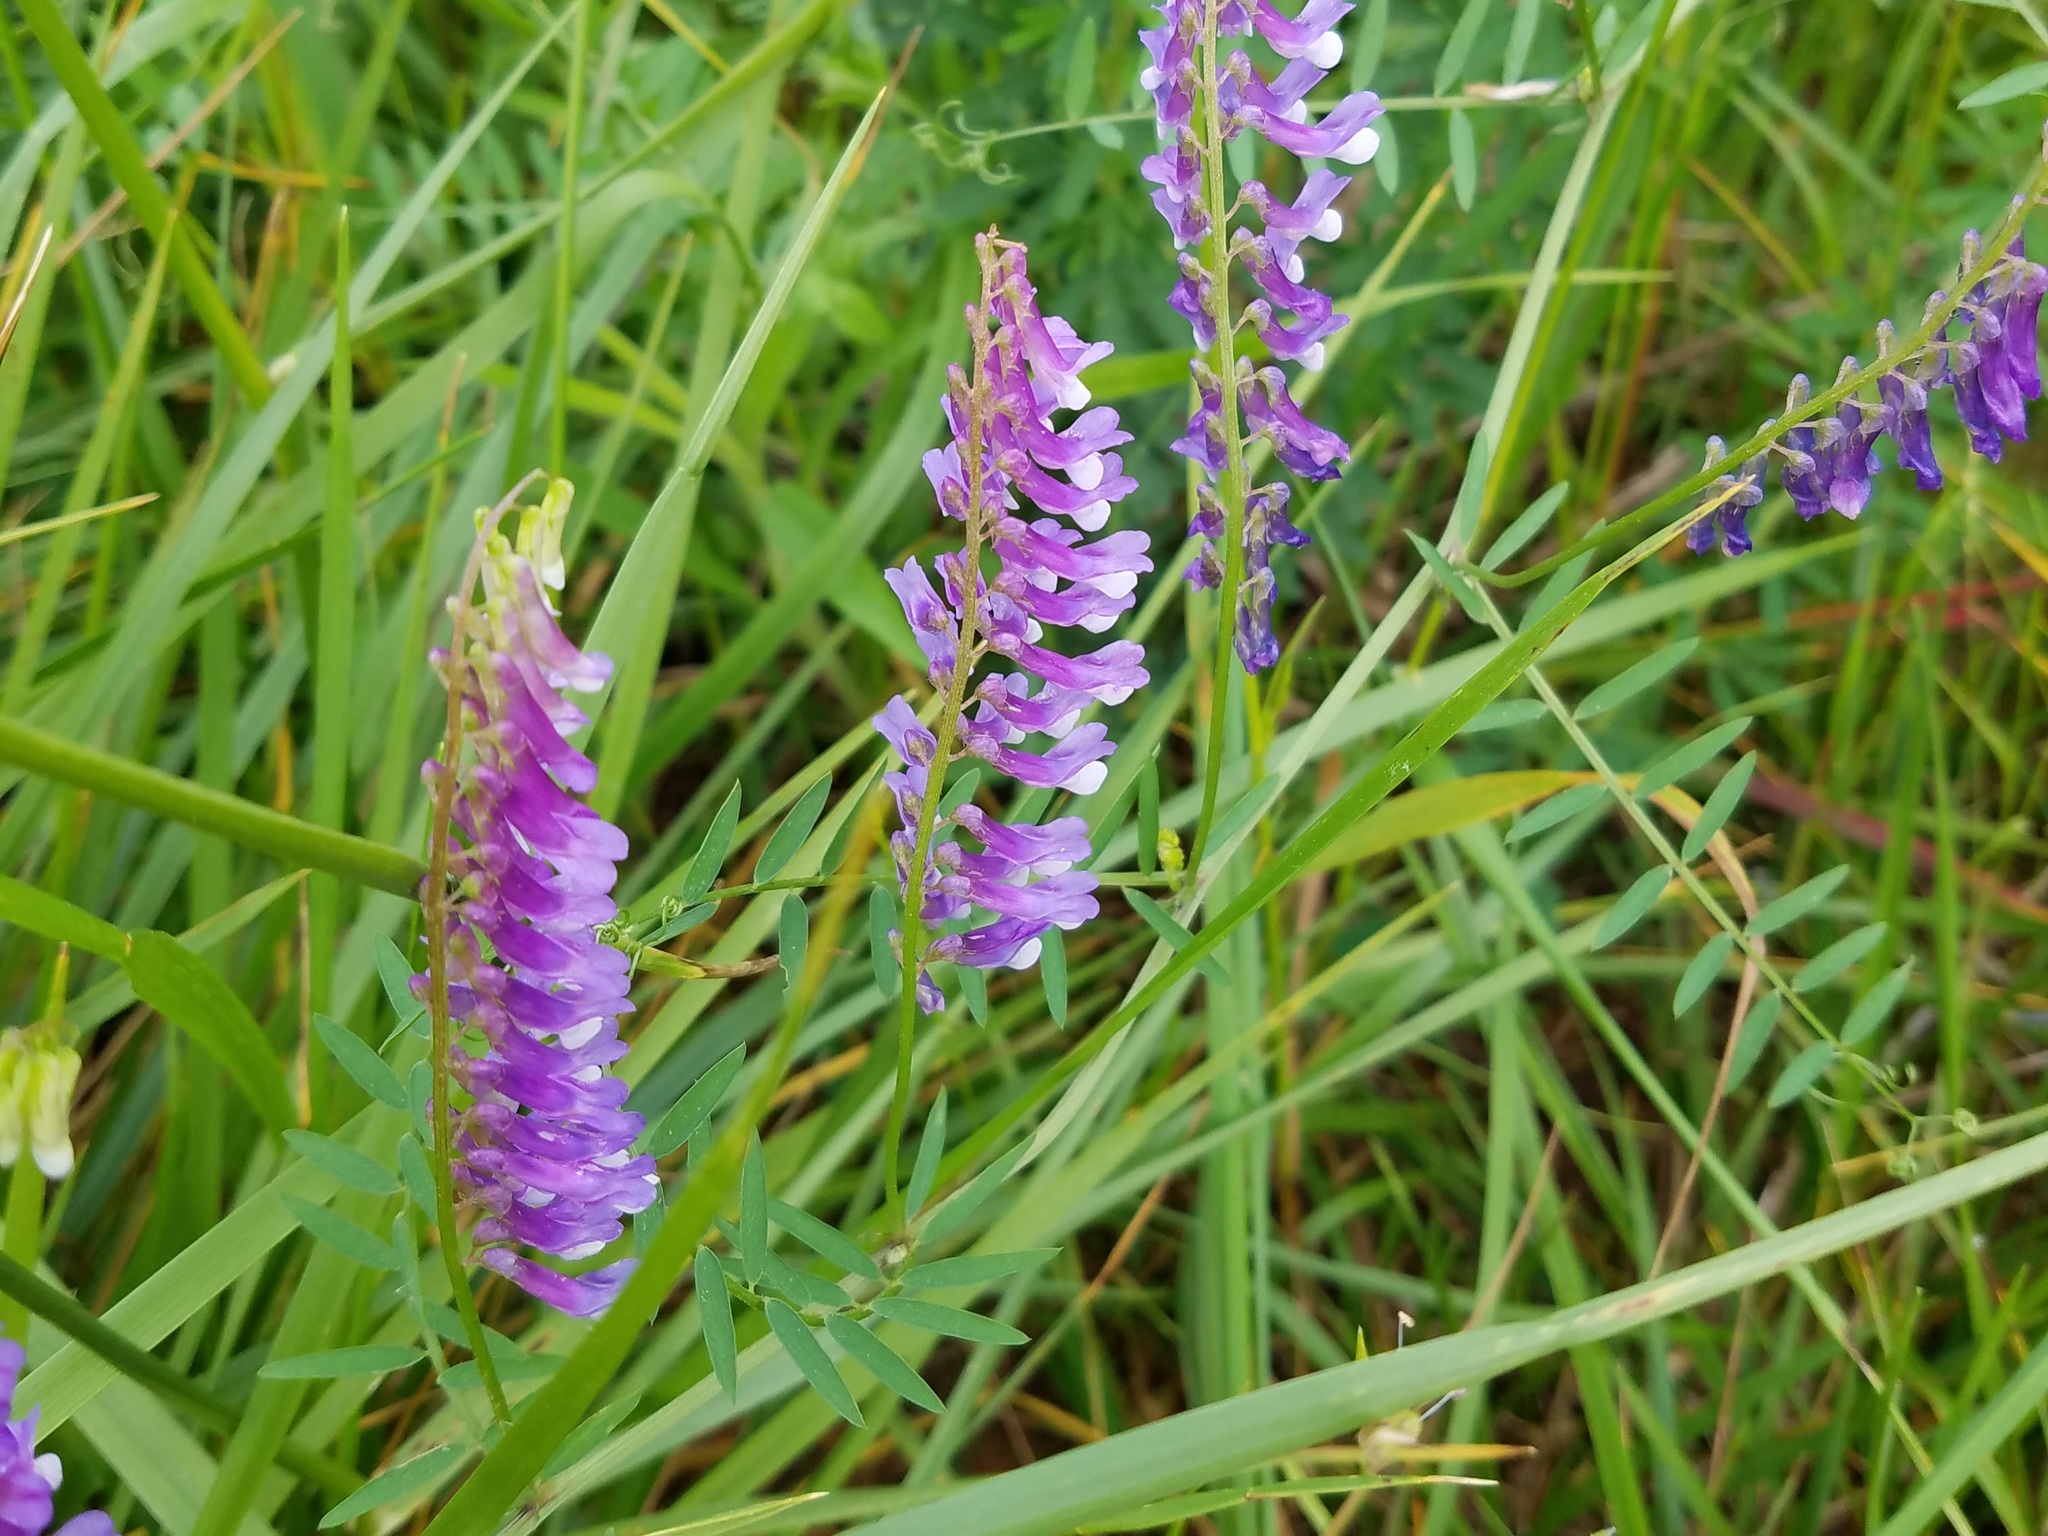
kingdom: Plantae
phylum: Tracheophyta
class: Magnoliopsida
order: Fabales
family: Fabaceae
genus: Vicia
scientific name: Vicia villosa
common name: Fodder vetch
